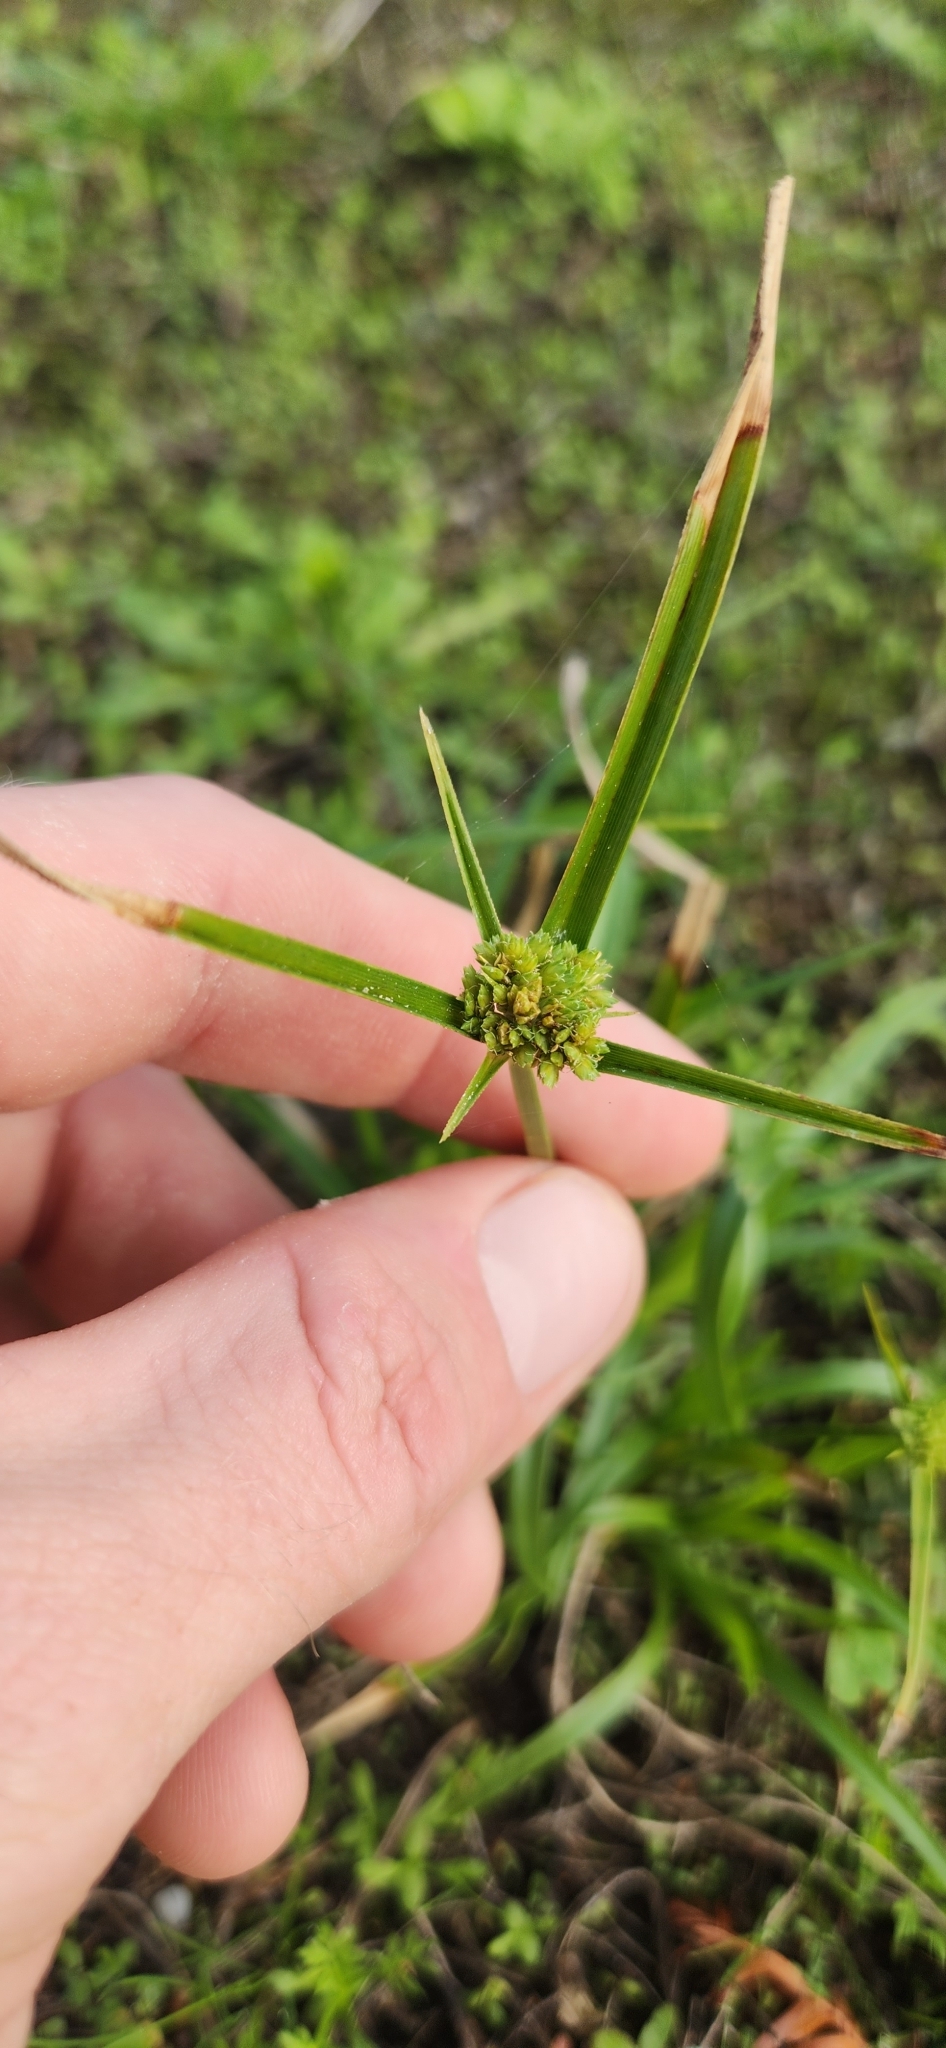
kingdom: Plantae
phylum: Tracheophyta
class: Liliopsida
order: Poales
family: Cyperaceae
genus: Cyperus
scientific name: Cyperus eragrostis
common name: Tall flatsedge
